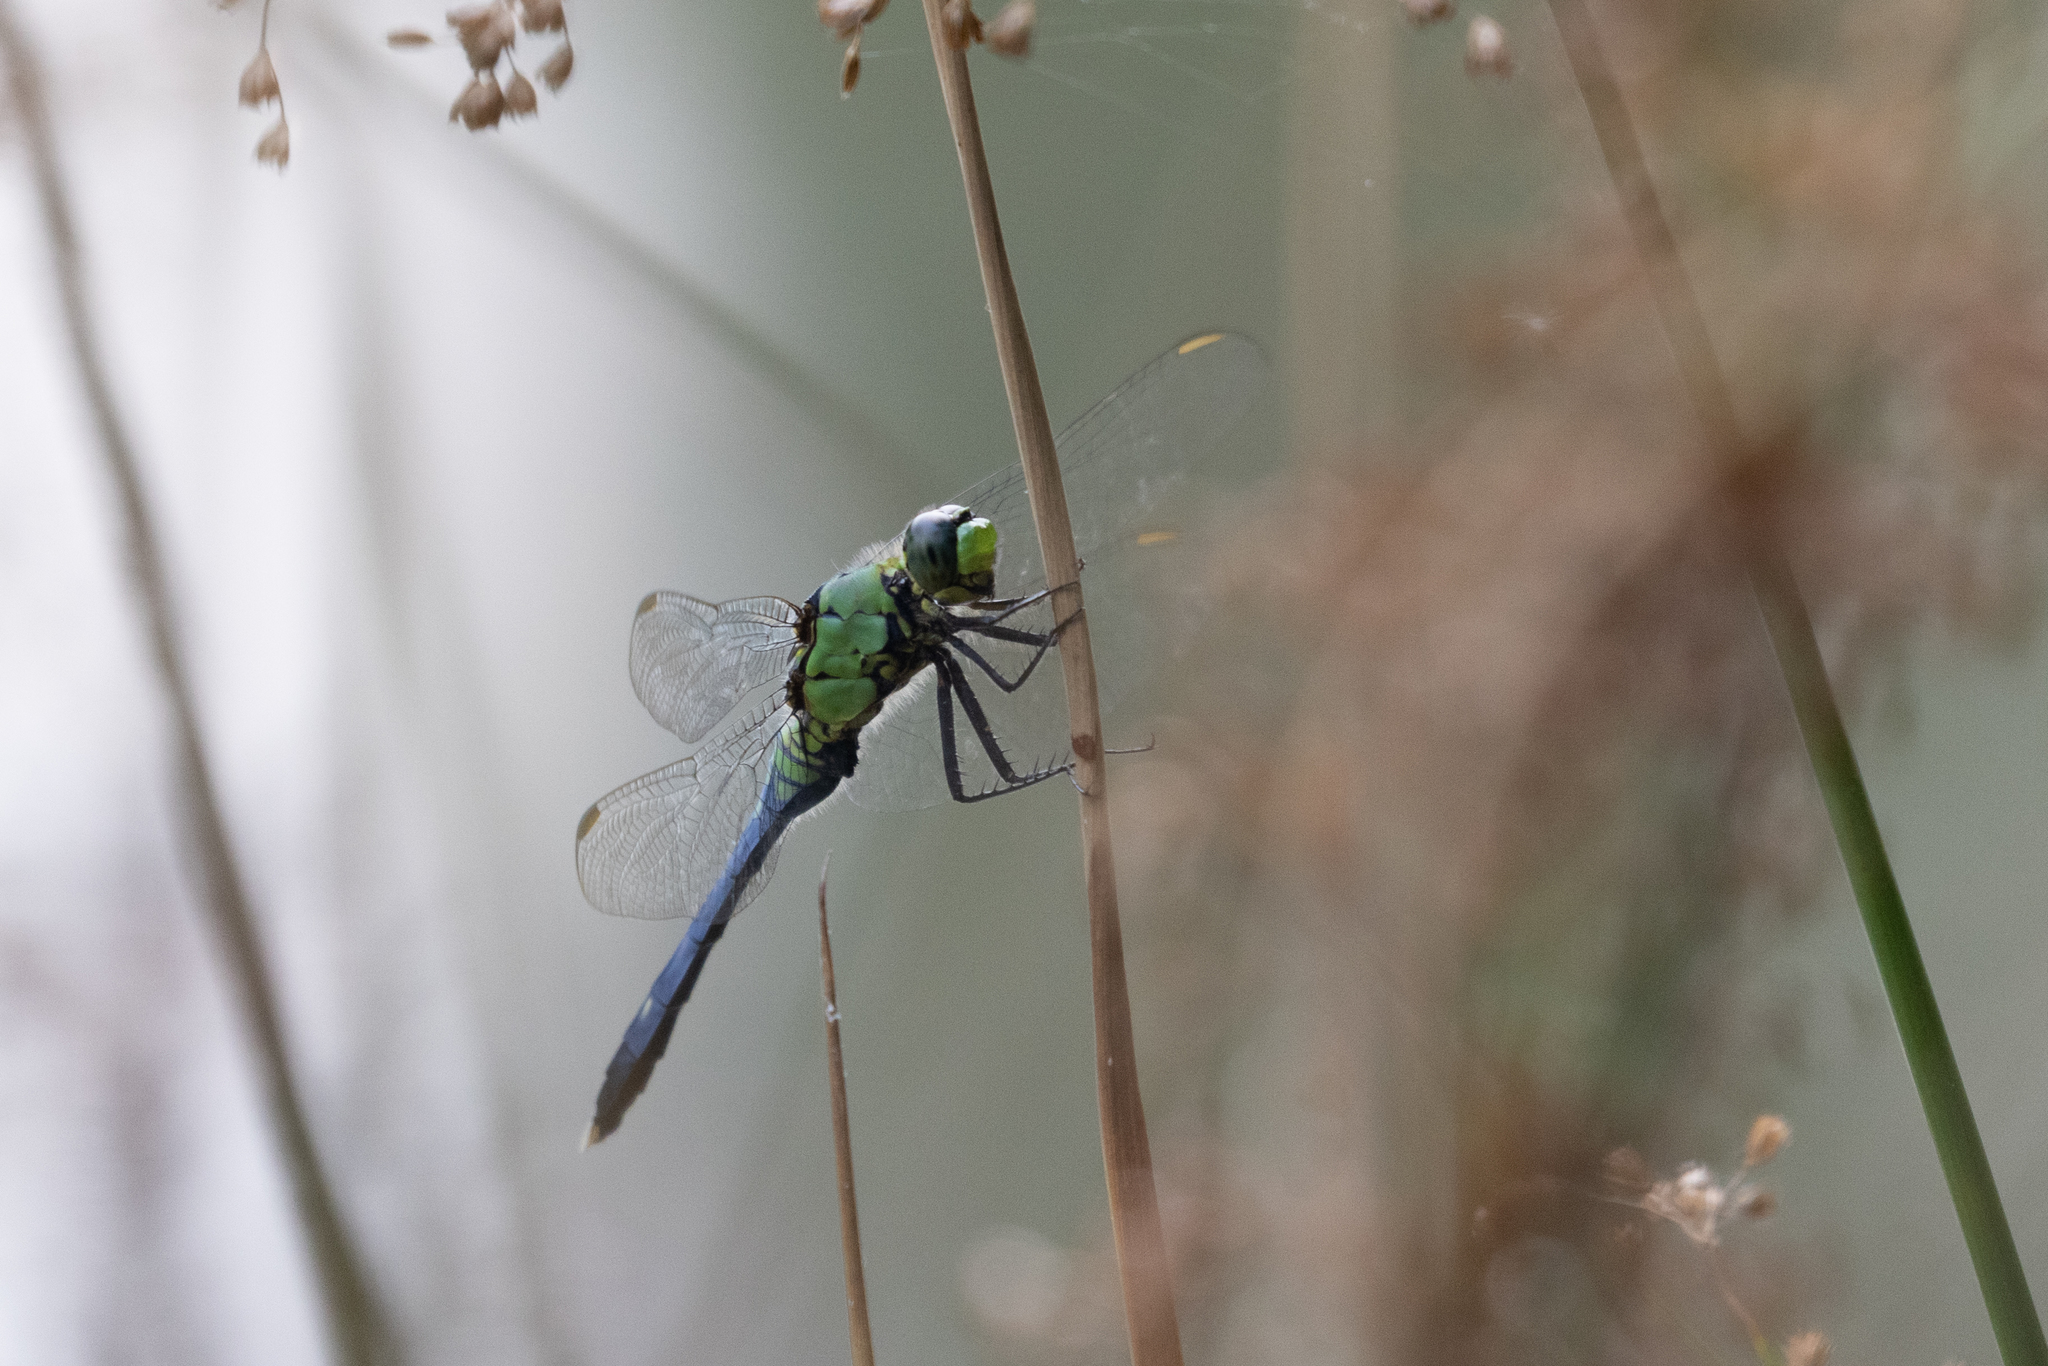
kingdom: Animalia
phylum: Arthropoda
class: Insecta
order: Odonata
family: Libellulidae
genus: Erythemis
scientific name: Erythemis simplicicollis
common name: Eastern pondhawk
